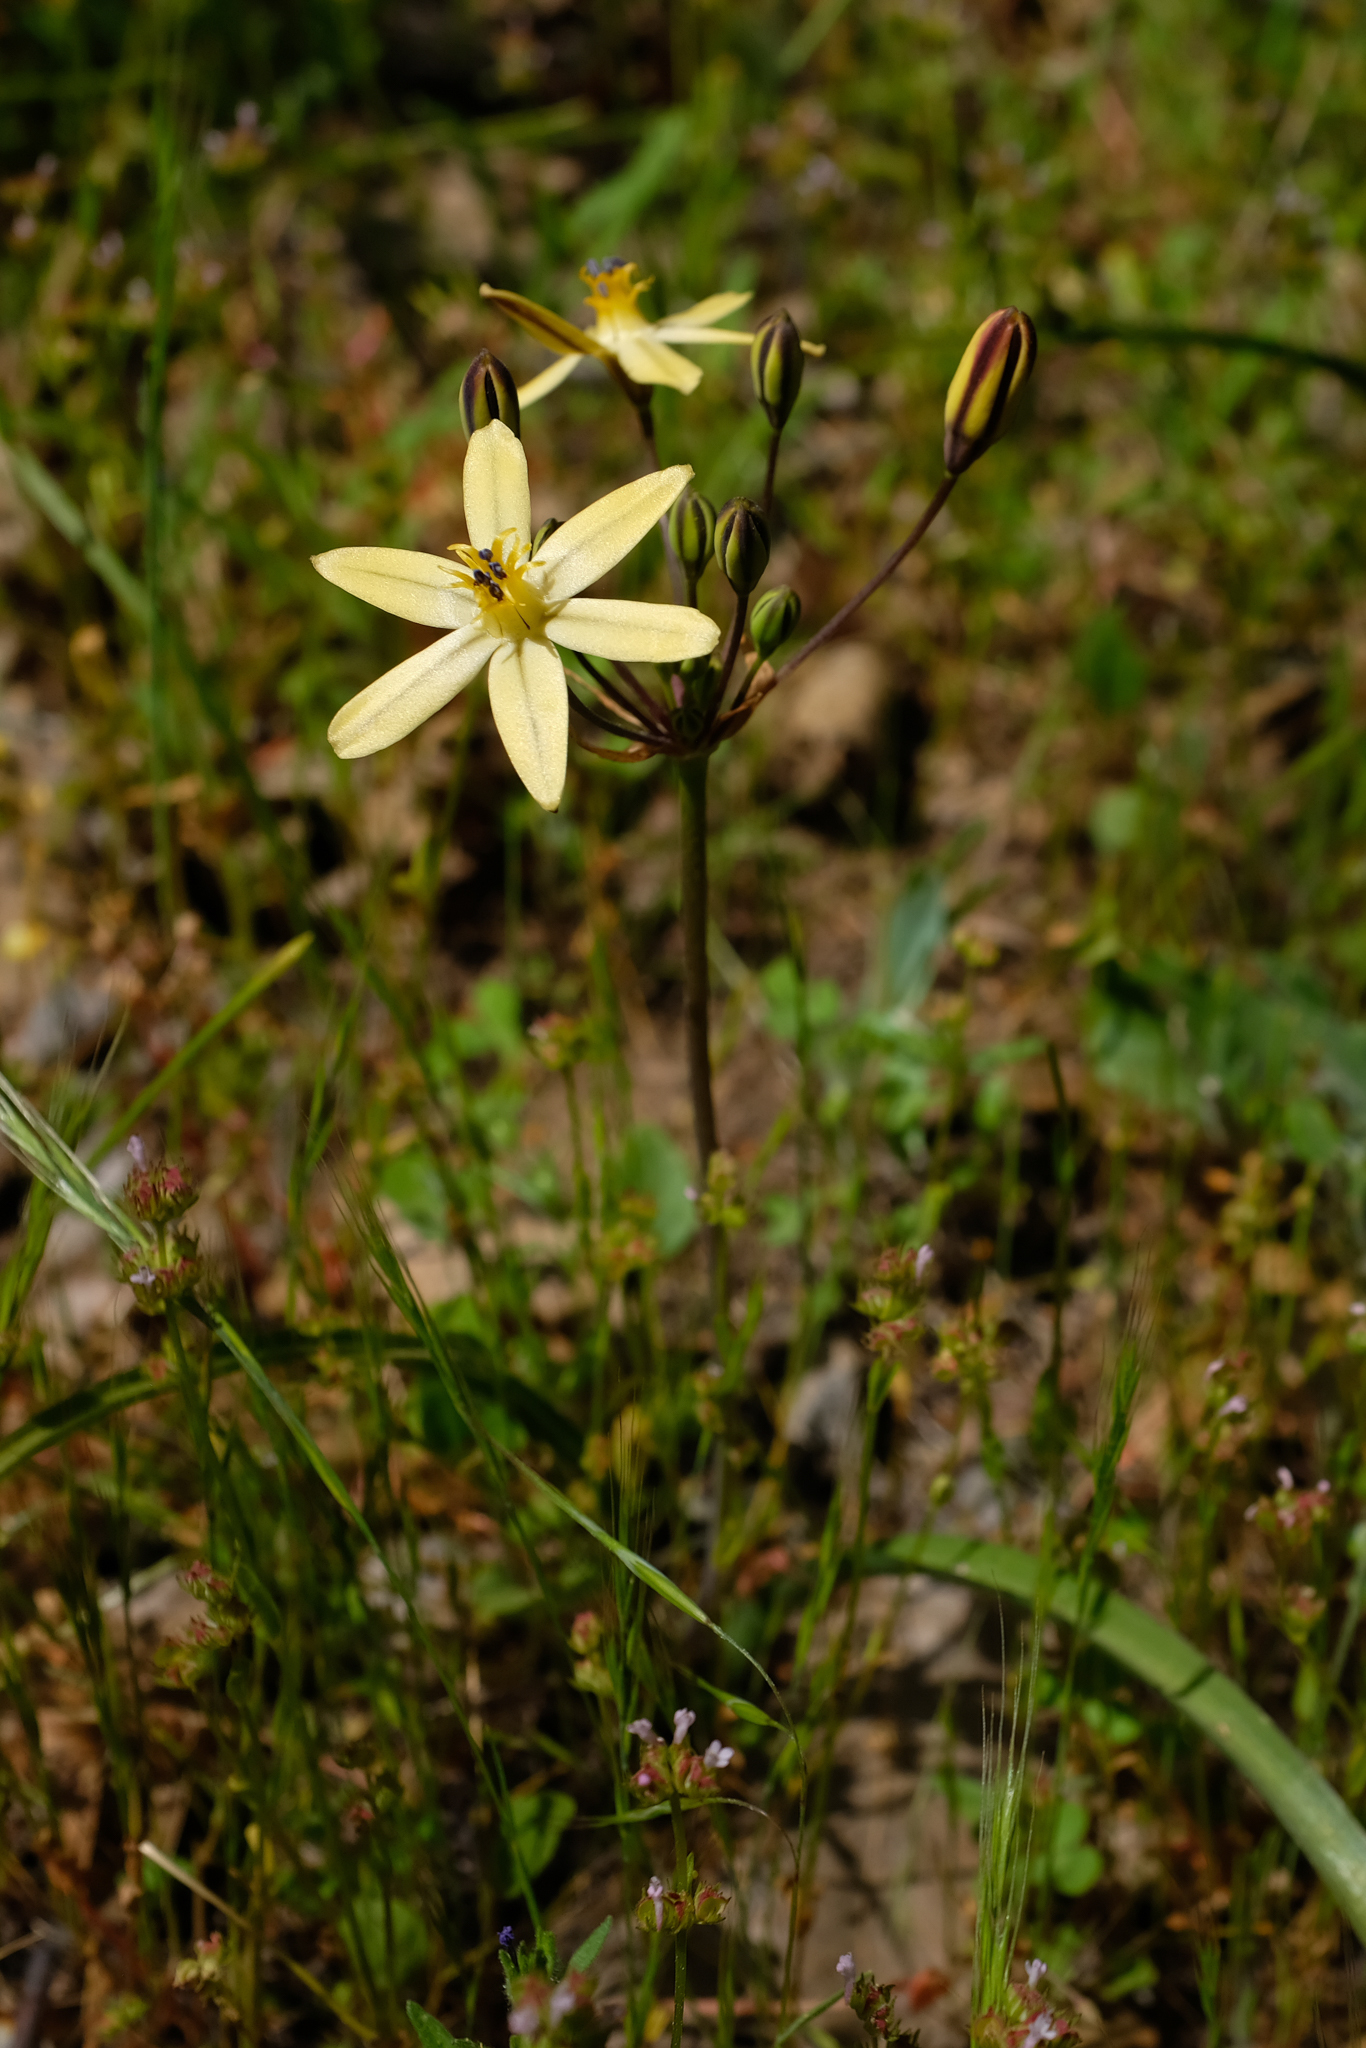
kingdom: Plantae
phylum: Tracheophyta
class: Liliopsida
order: Asparagales
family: Asparagaceae
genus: Triteleia
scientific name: Triteleia ixioides
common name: Yellow-brodiaea
